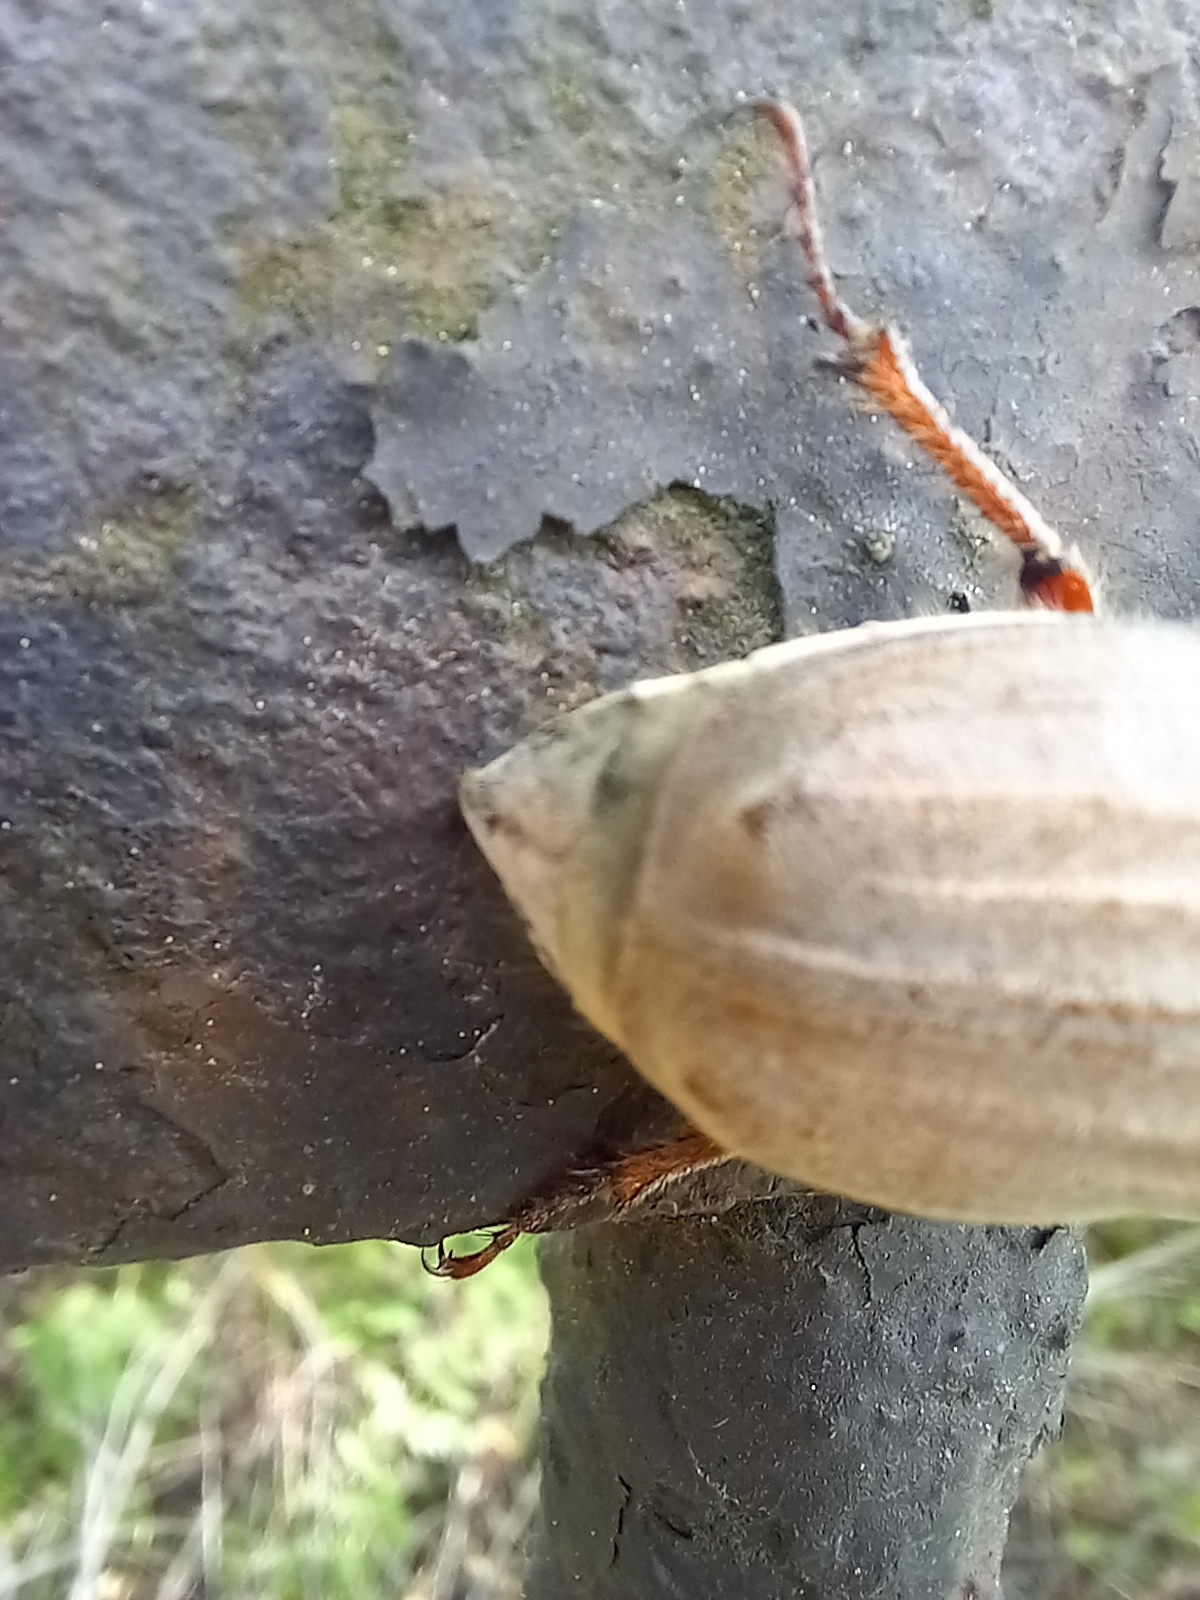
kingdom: Animalia
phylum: Arthropoda
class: Insecta
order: Coleoptera
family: Scarabaeidae
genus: Melolontha
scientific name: Melolontha hippocastani
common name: Chestnut cockchafer
